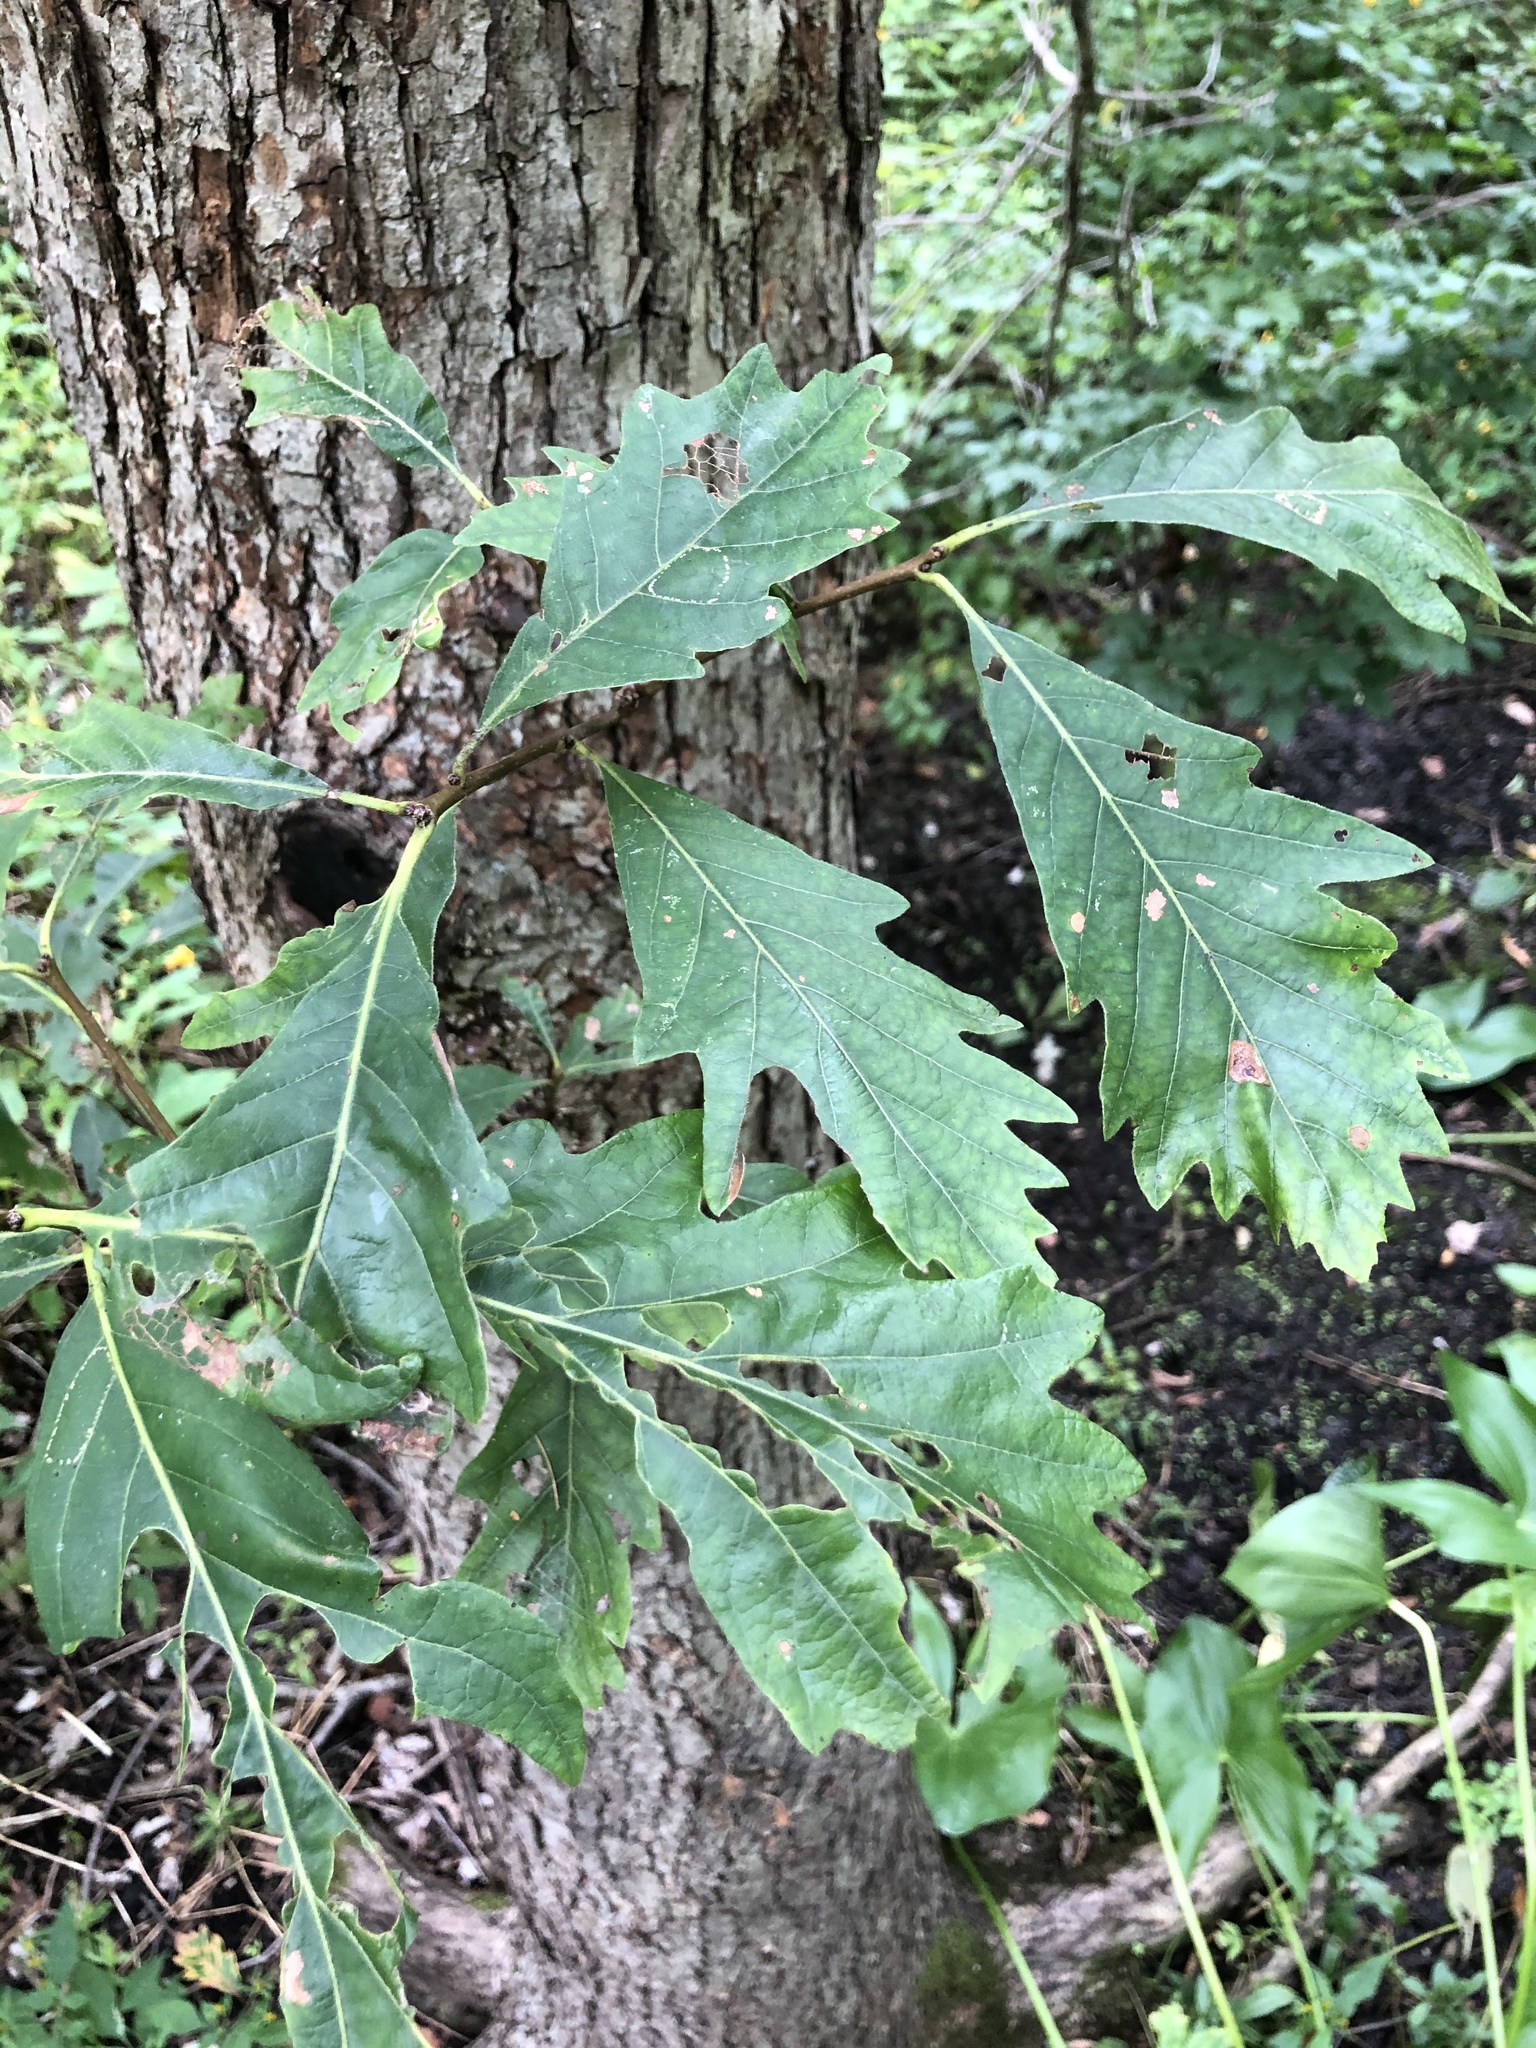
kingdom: Plantae
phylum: Tracheophyta
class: Magnoliopsida
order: Fagales
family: Fagaceae
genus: Quercus
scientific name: Quercus bicolor
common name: Swamp white oak
